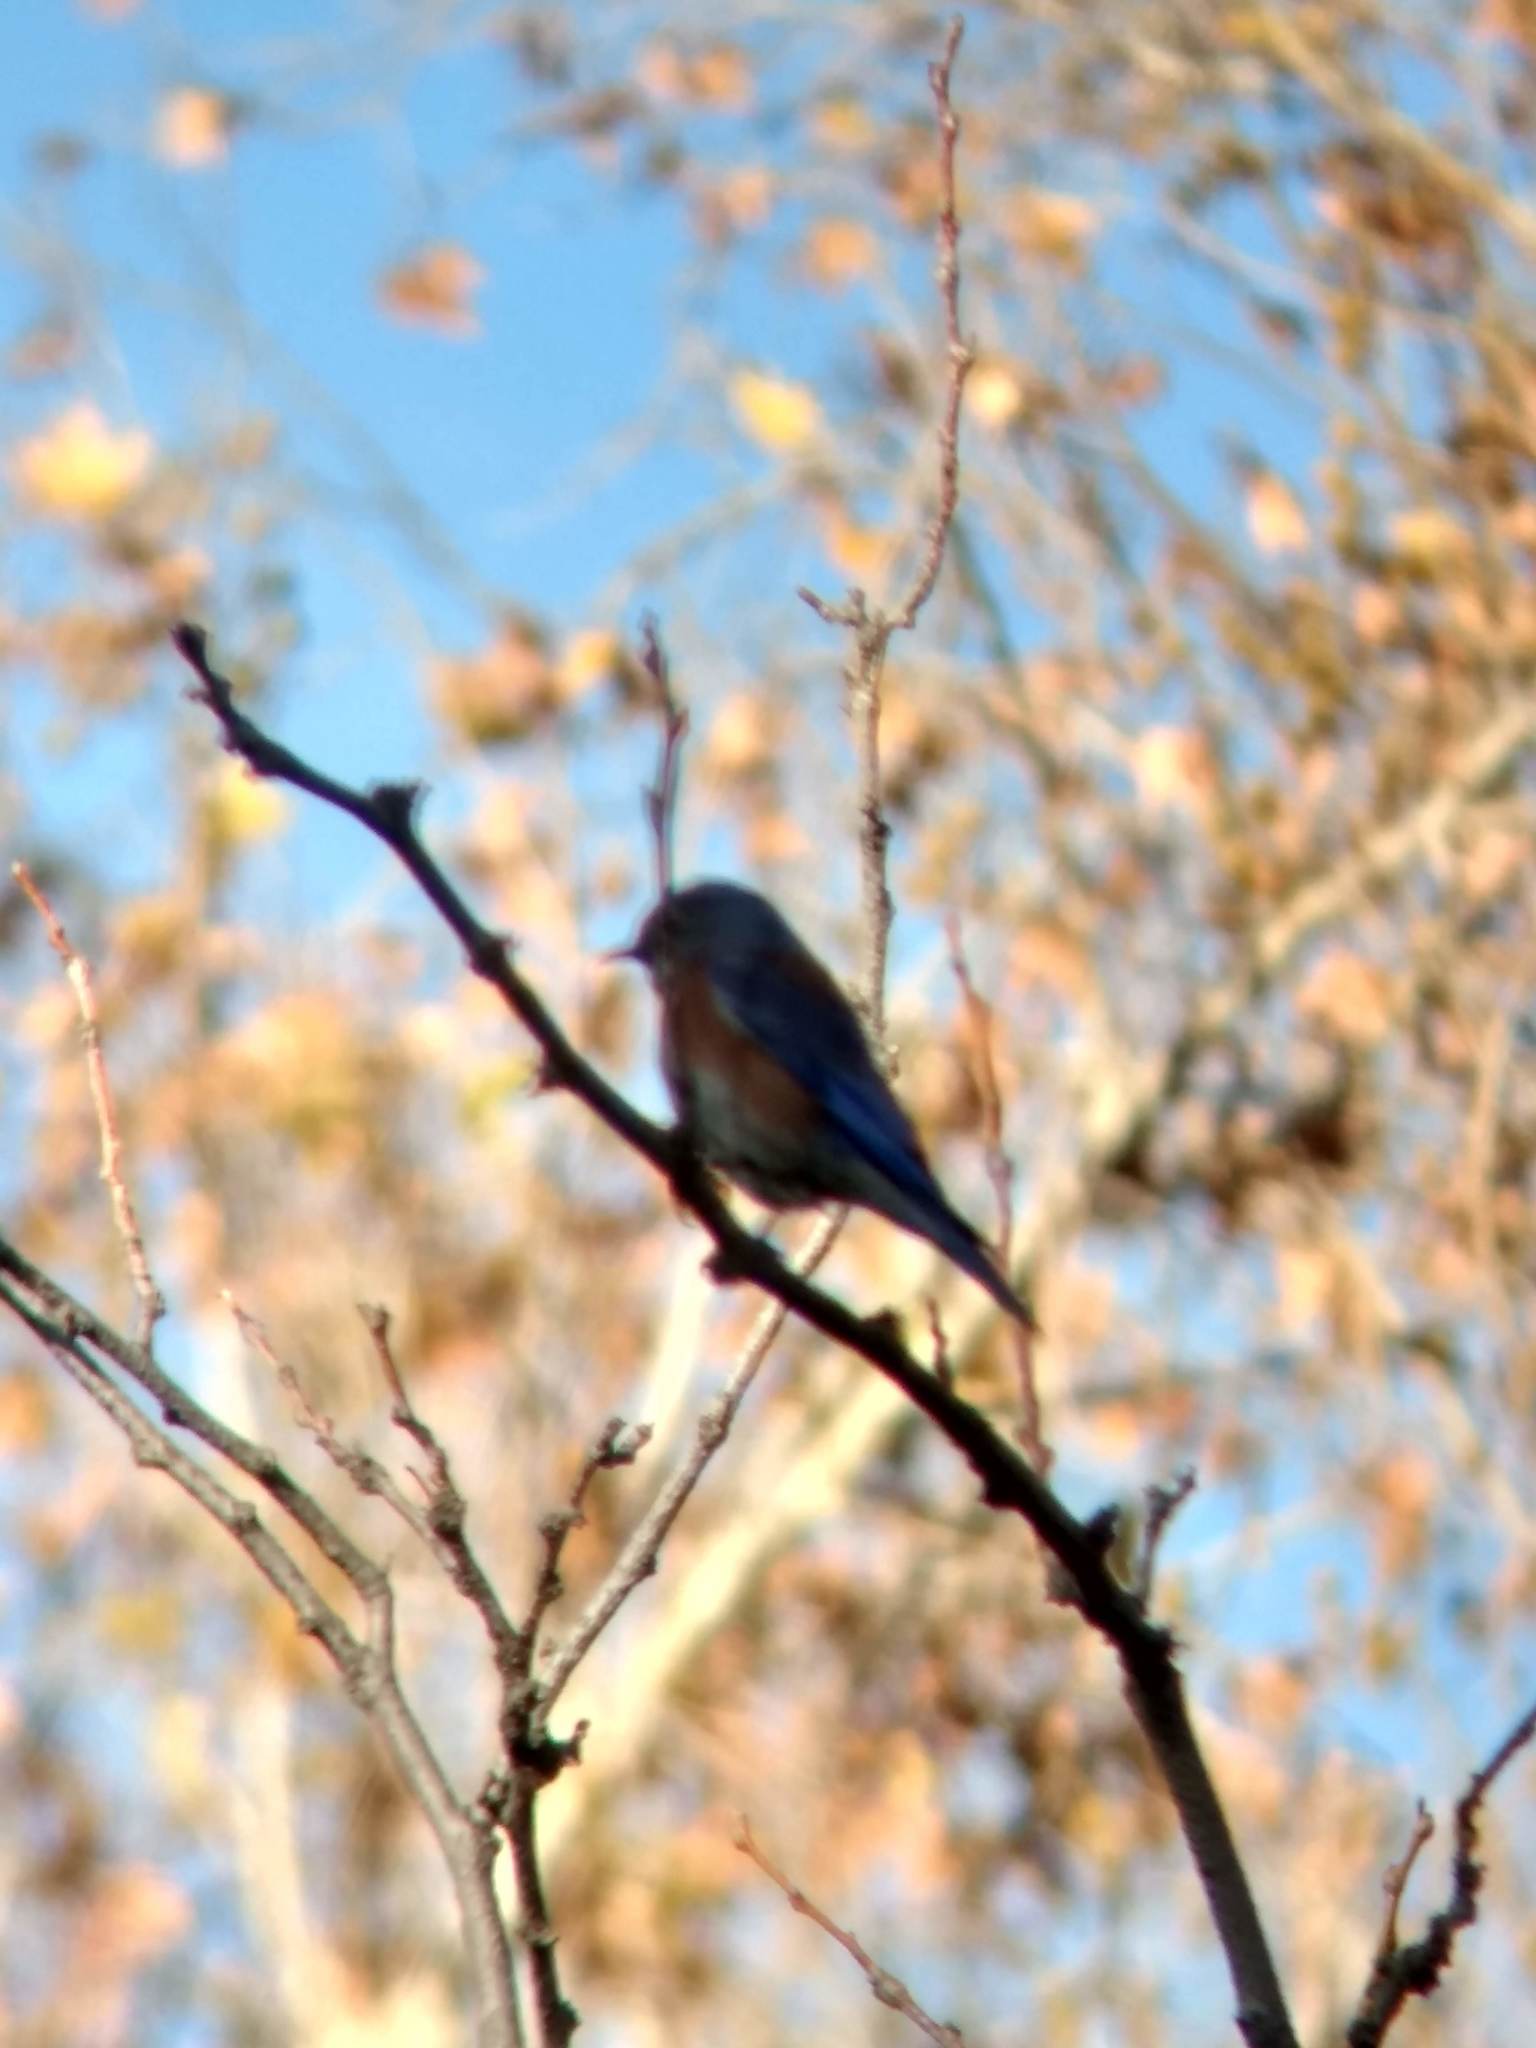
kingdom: Animalia
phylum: Chordata
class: Aves
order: Passeriformes
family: Turdidae
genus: Sialia
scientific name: Sialia mexicana
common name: Western bluebird
